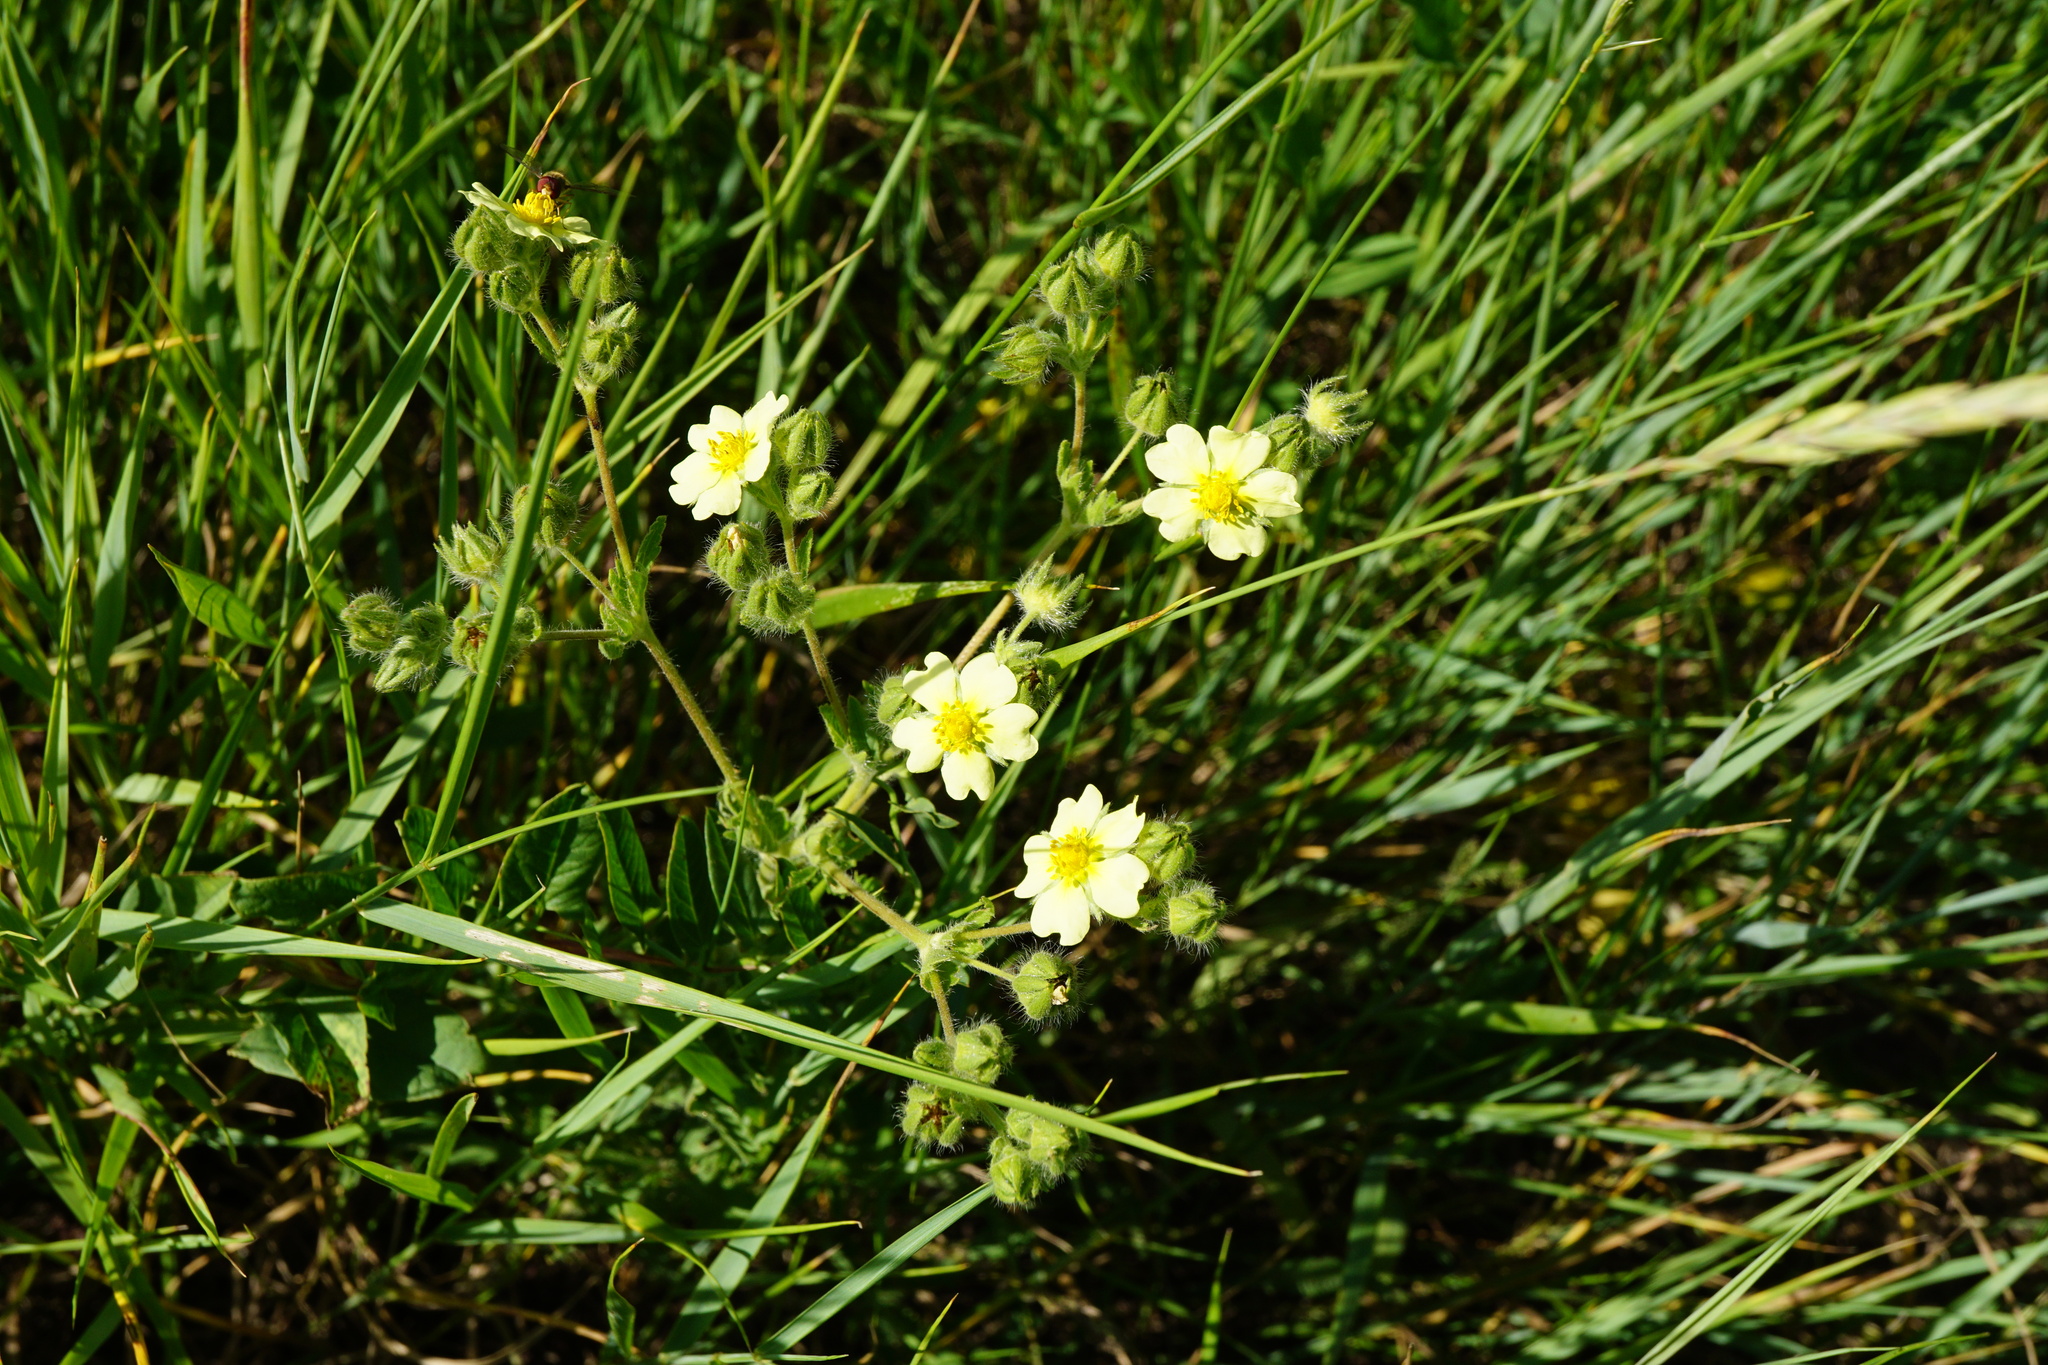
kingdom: Plantae
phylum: Tracheophyta
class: Magnoliopsida
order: Rosales
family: Rosaceae
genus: Potentilla
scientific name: Potentilla recta
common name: Sulphur cinquefoil
